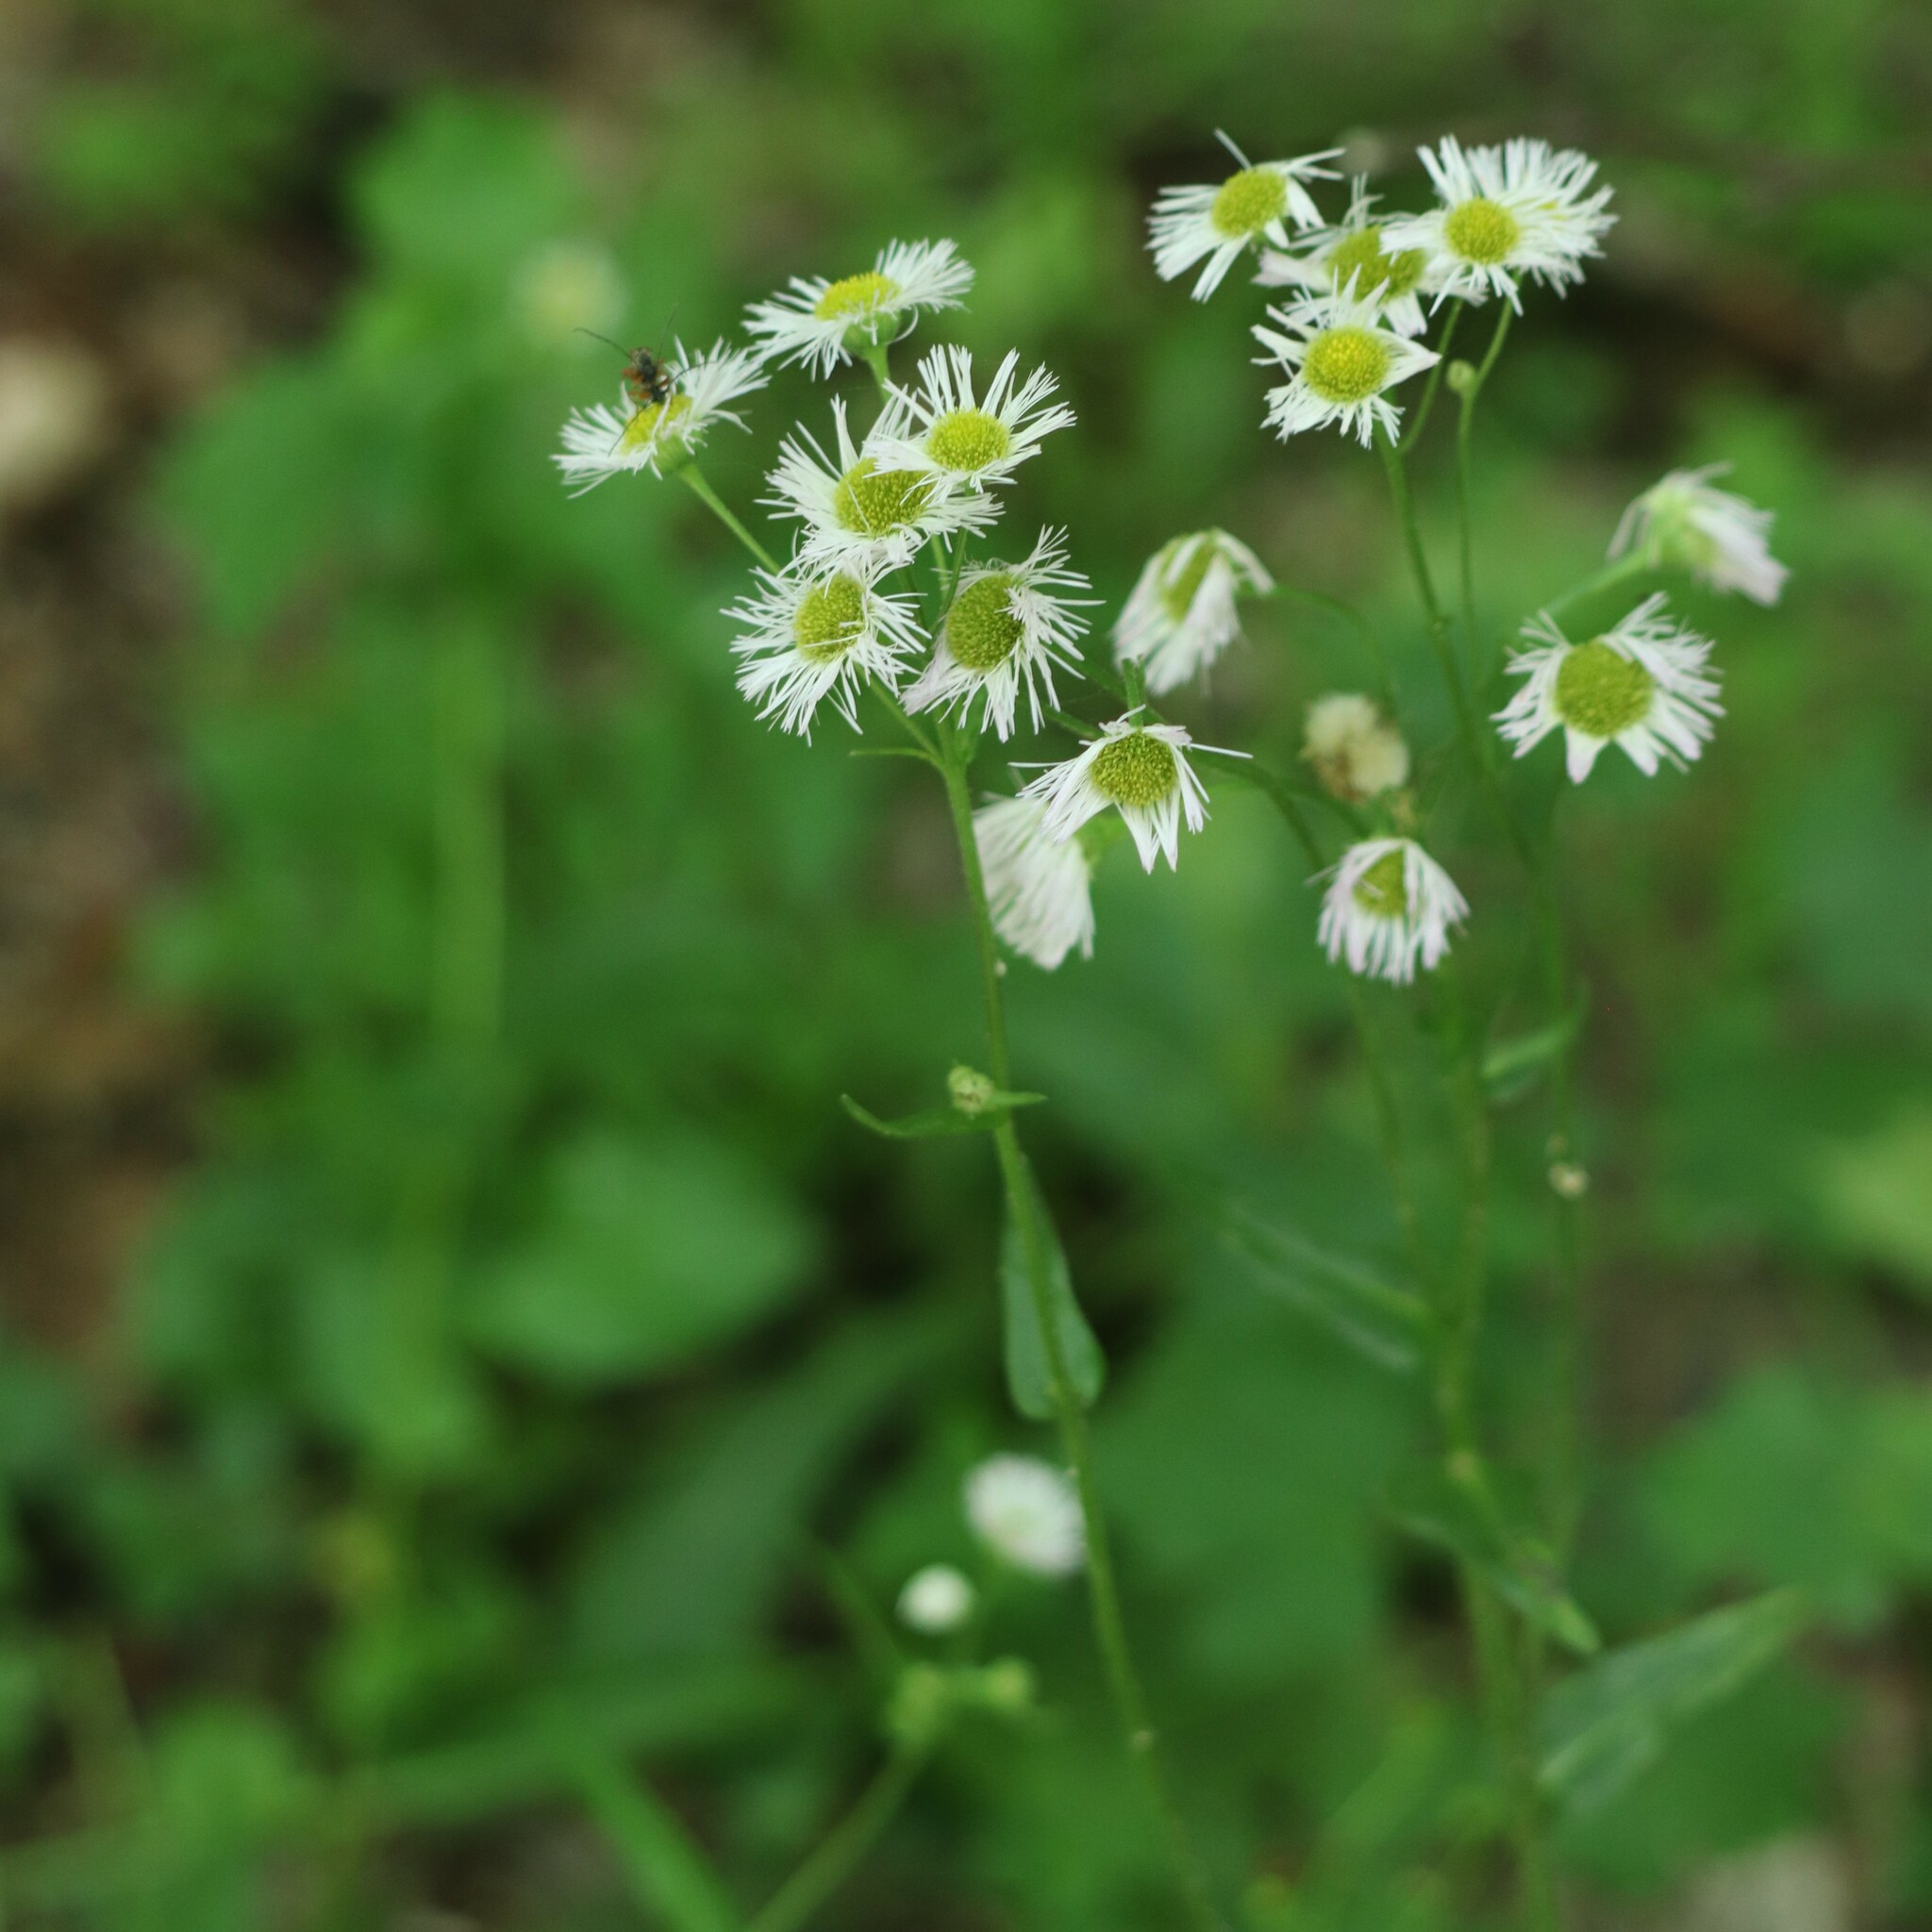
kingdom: Plantae
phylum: Tracheophyta
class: Magnoliopsida
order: Asterales
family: Asteraceae
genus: Erigeron
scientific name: Erigeron philadelphicus
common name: Robin's-plantain
